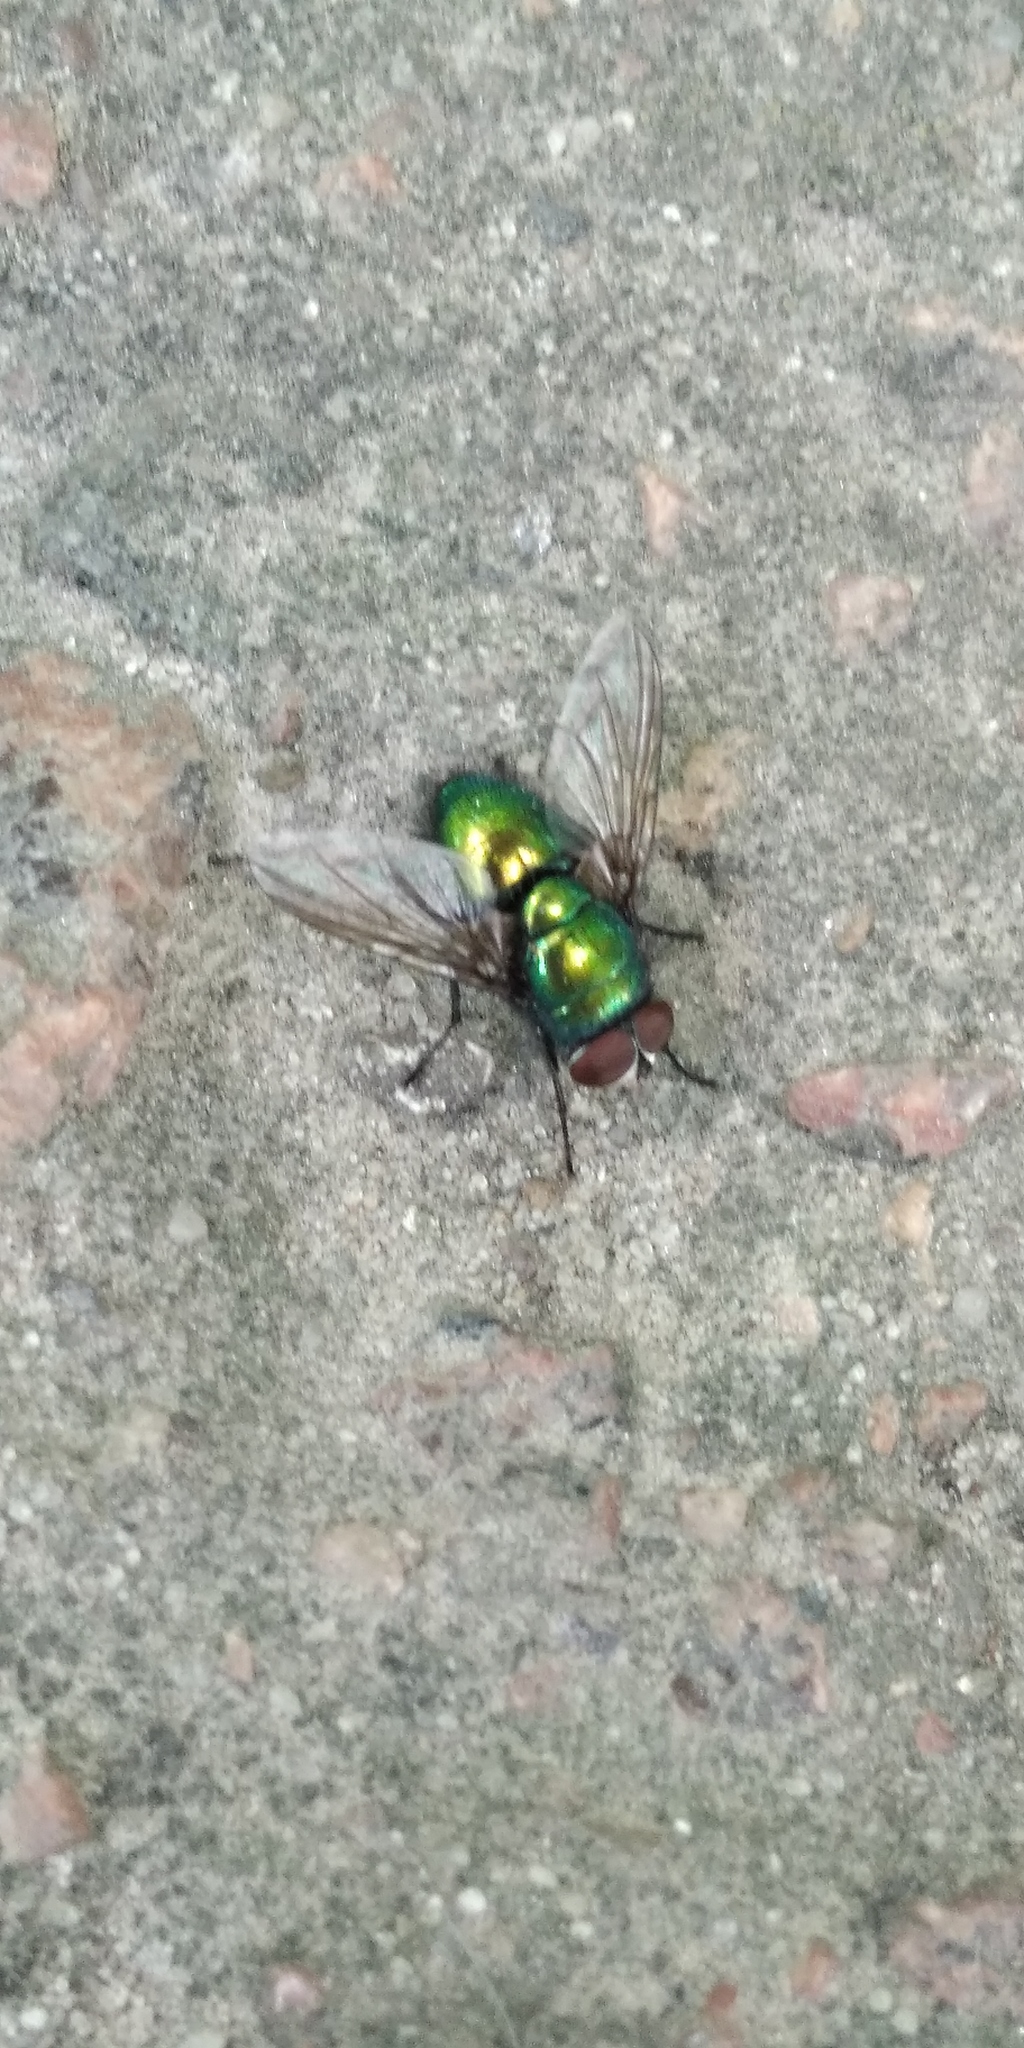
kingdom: Animalia
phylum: Arthropoda
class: Insecta
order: Diptera
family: Calliphoridae
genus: Lucilia
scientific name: Lucilia caesar
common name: Blow fly
